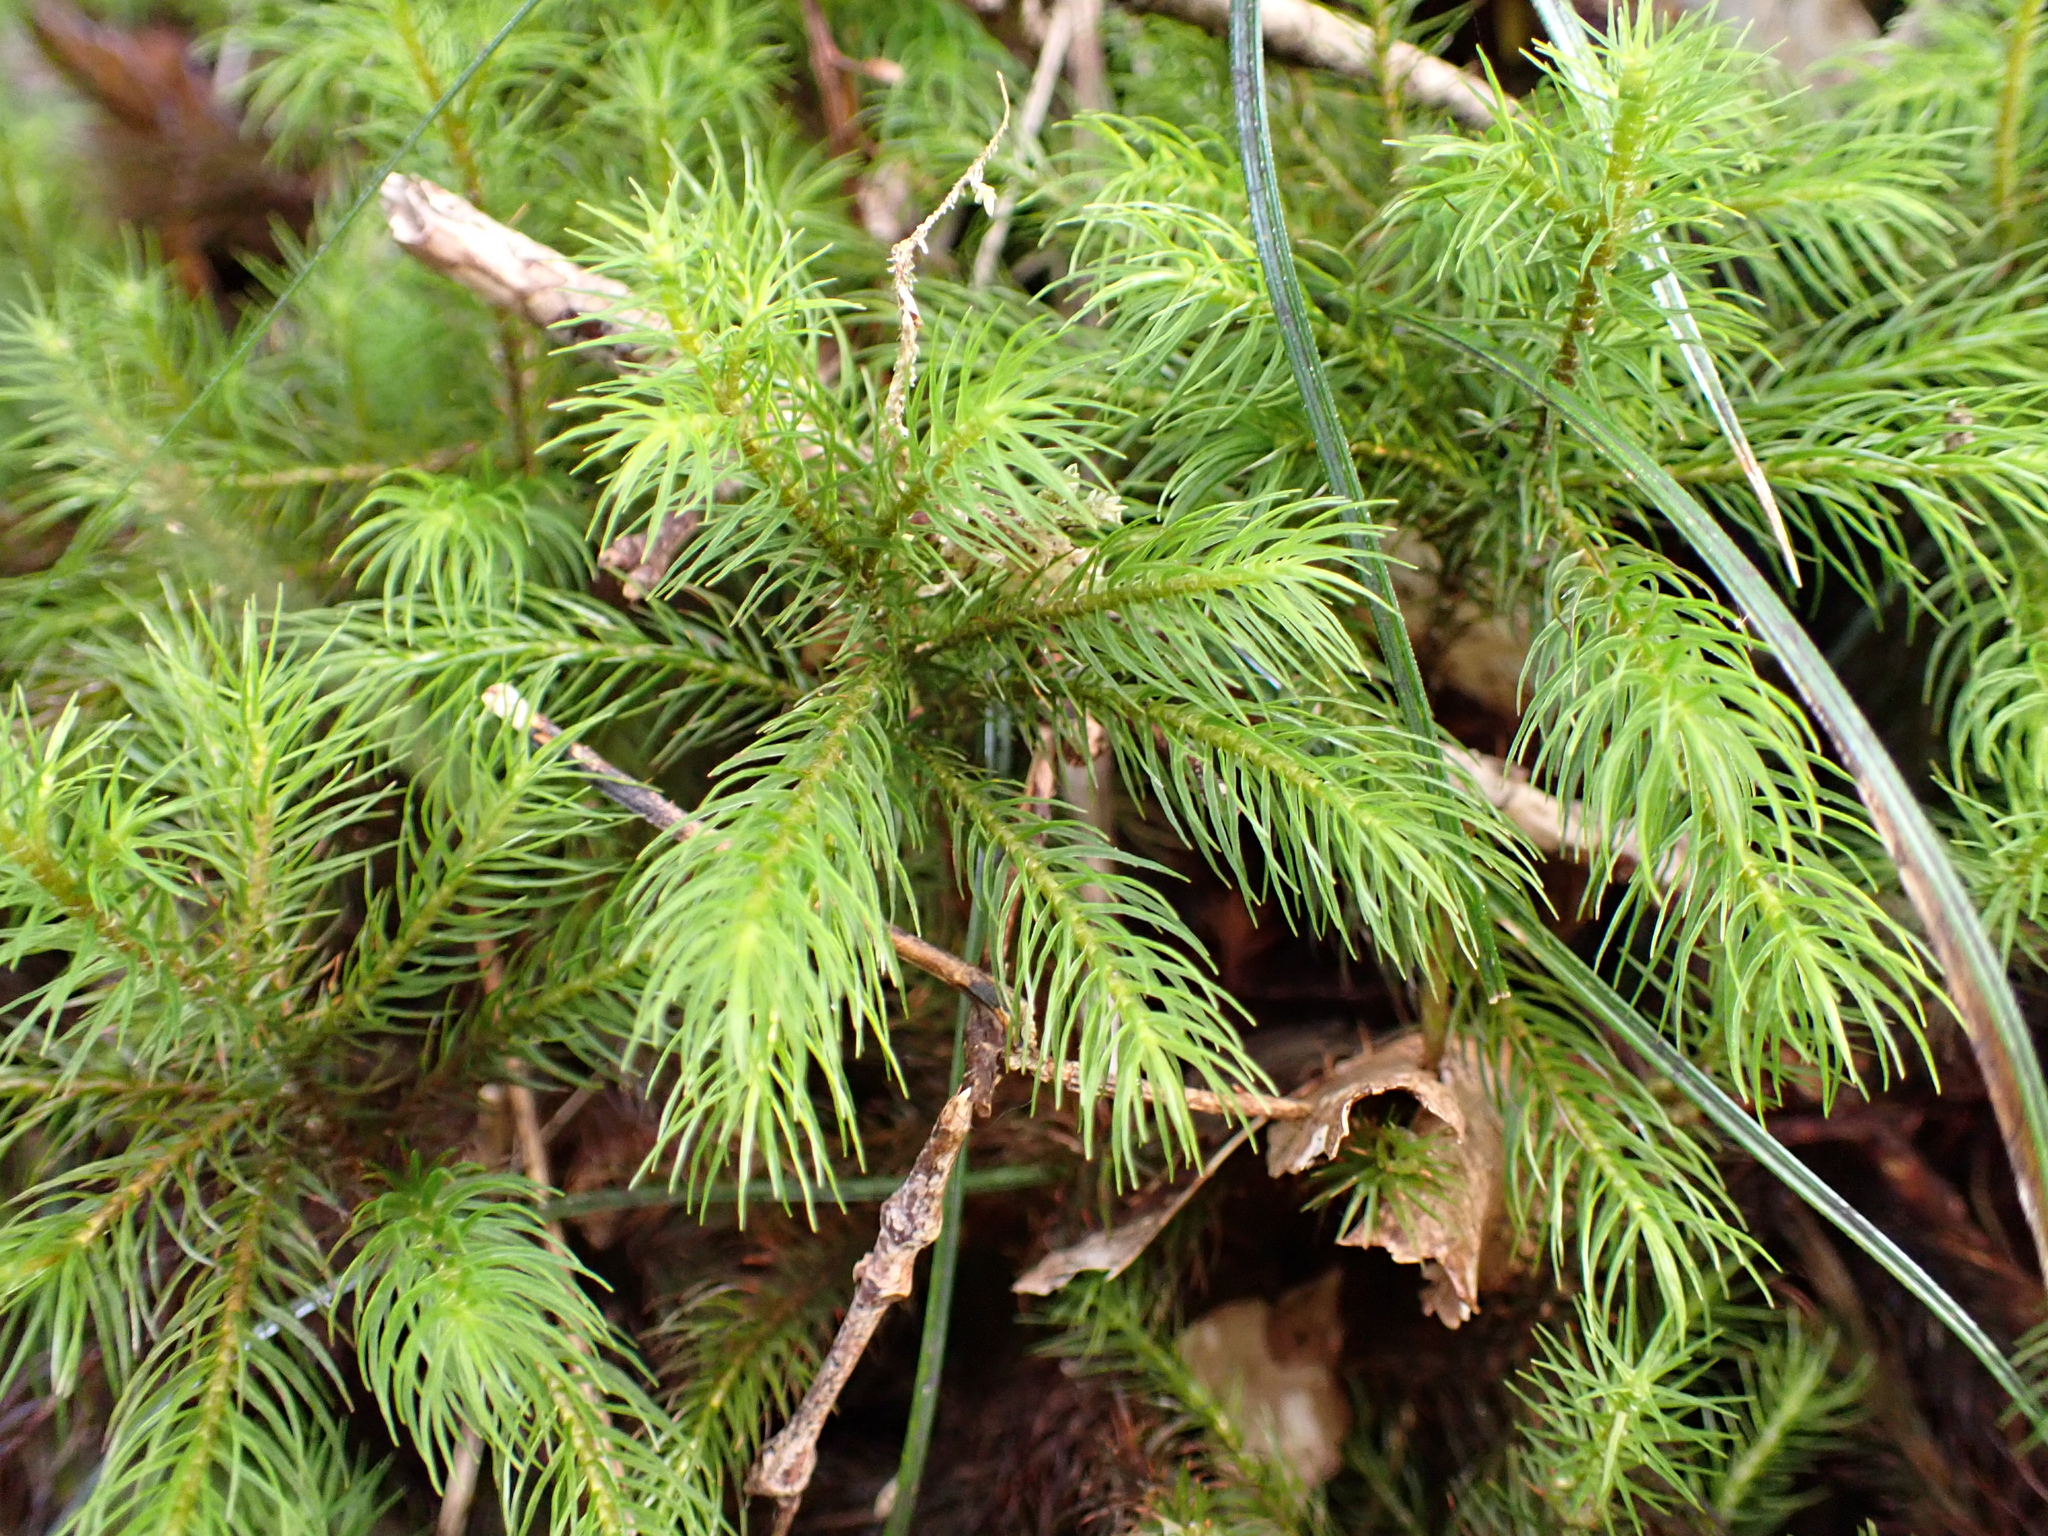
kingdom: Plantae
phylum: Bryophyta
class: Polytrichopsida
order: Polytrichales
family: Polytrichaceae
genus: Dendroligotrichum
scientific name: Dendroligotrichum tongariroense
